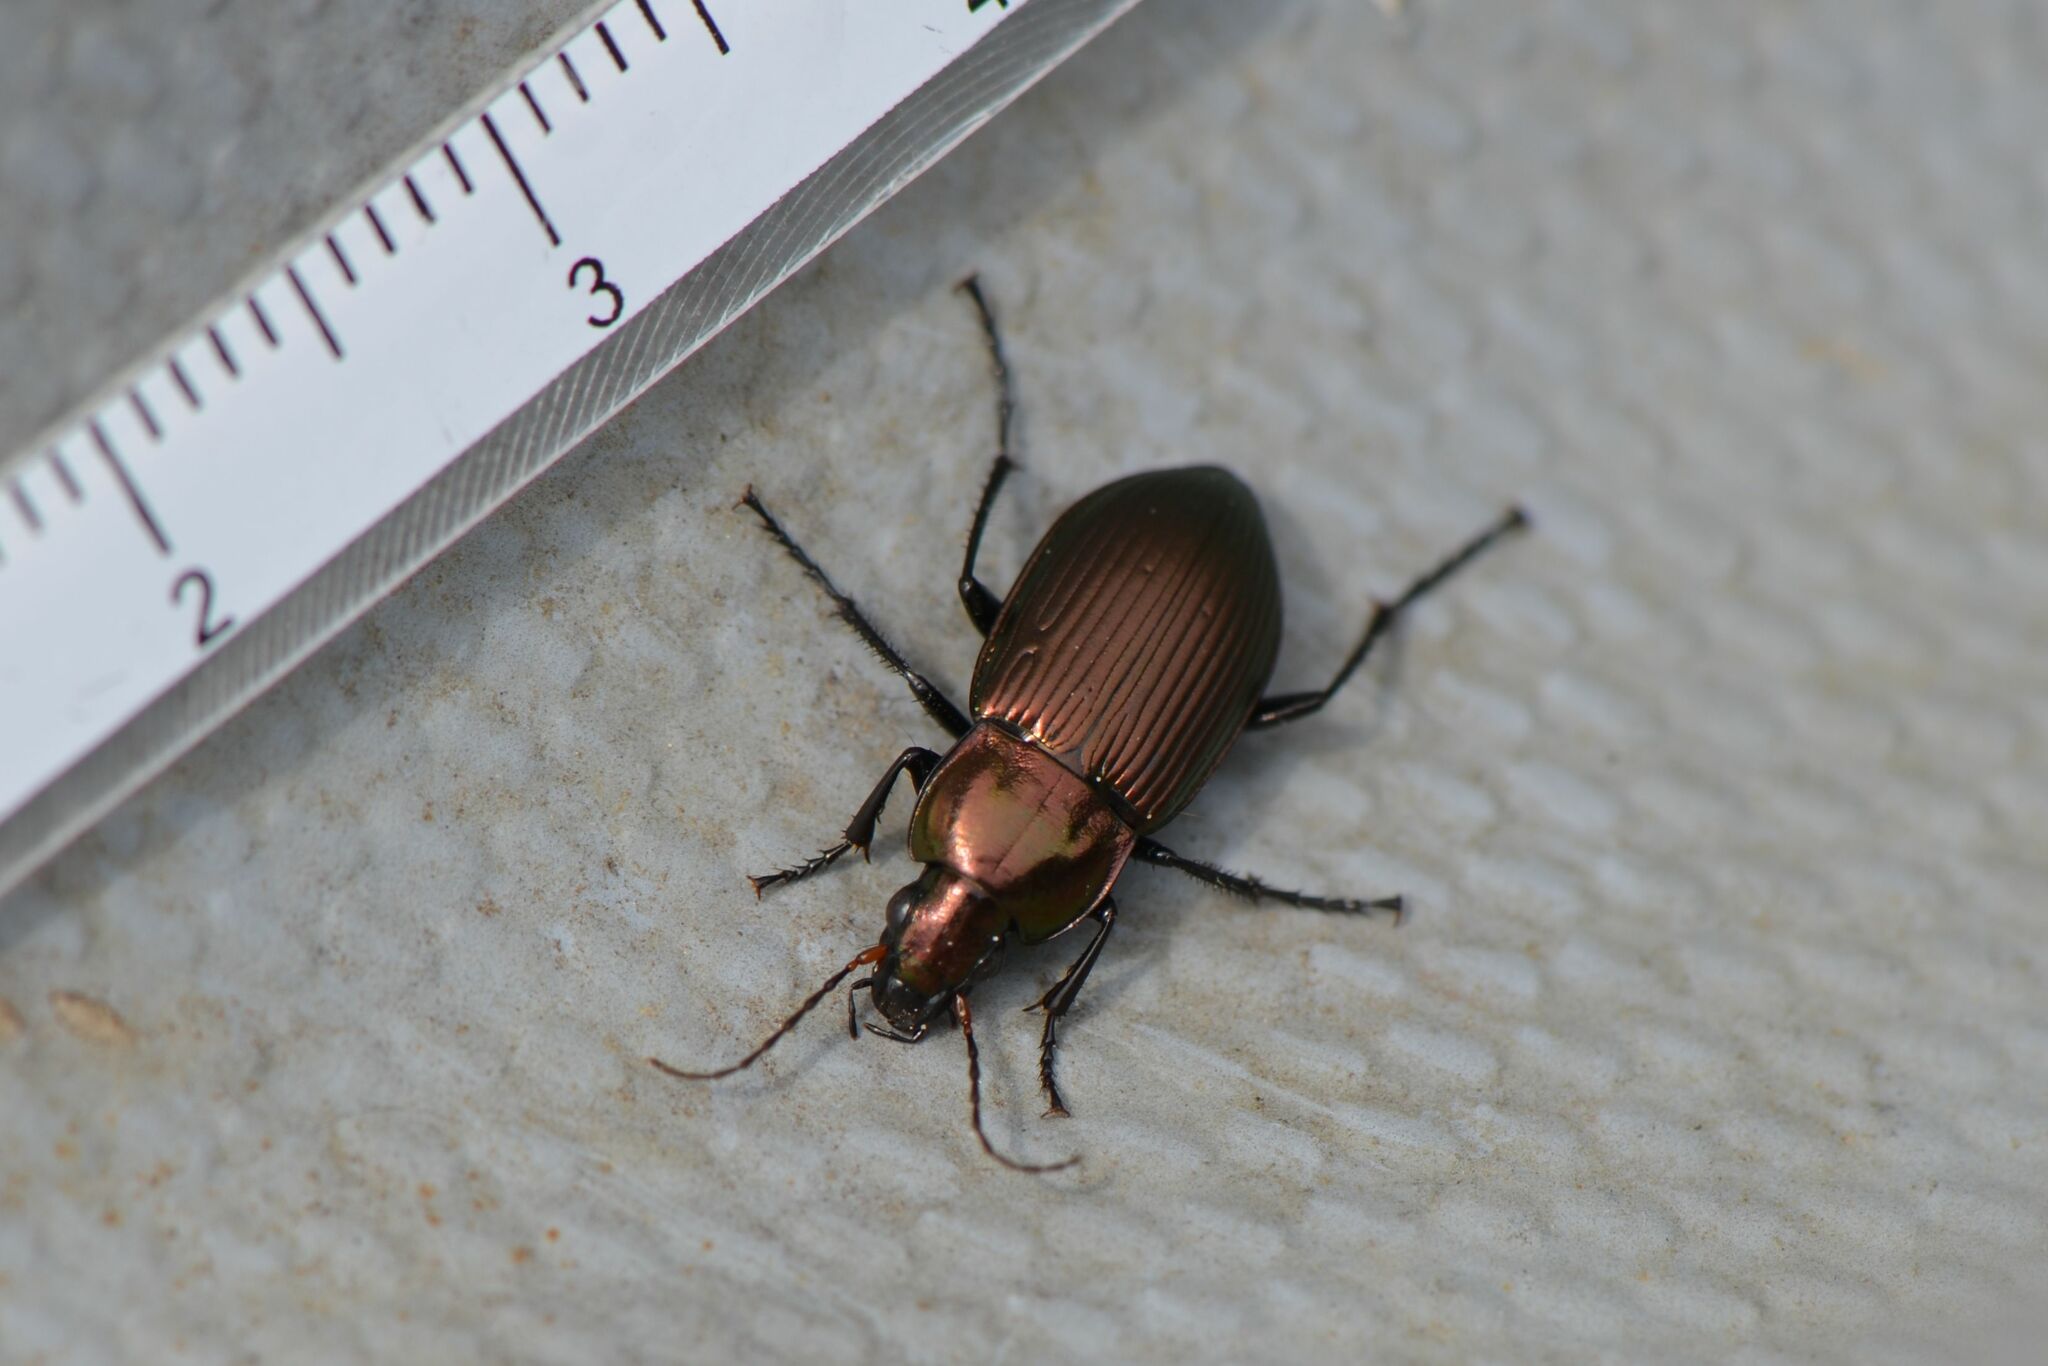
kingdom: Animalia
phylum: Arthropoda
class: Insecta
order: Coleoptera
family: Carabidae
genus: Poecilus
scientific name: Poecilus cupreus
